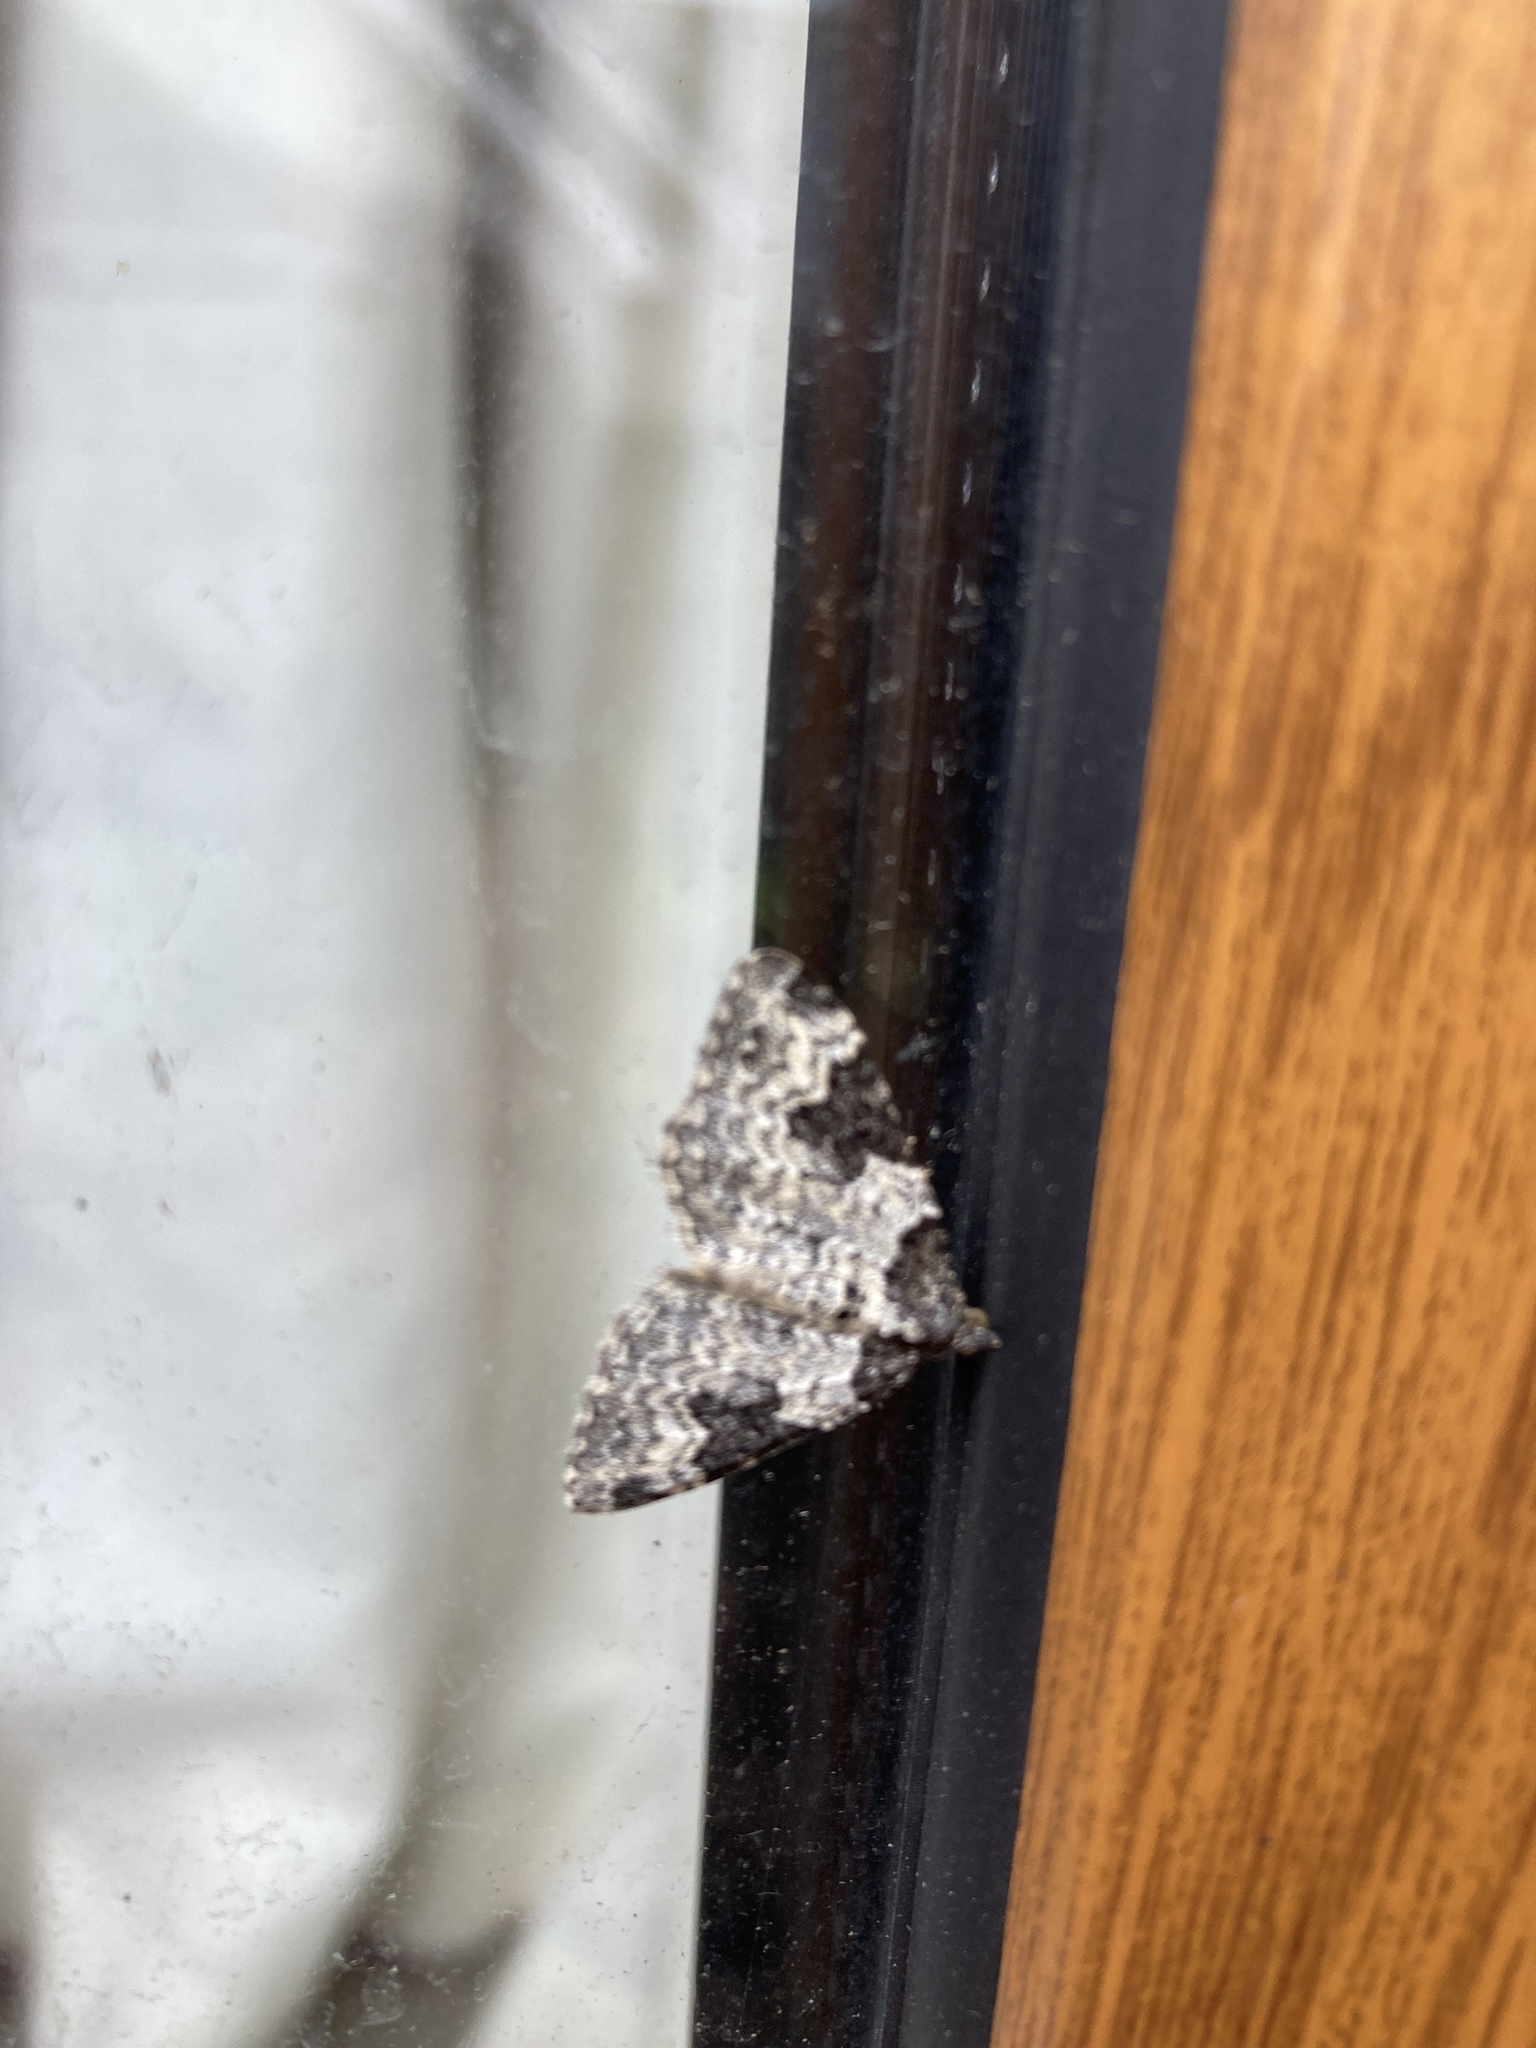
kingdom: Animalia
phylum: Arthropoda
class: Insecta
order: Lepidoptera
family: Geometridae
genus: Xanthorhoe
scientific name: Xanthorhoe fluctuata
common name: Garden carpet
